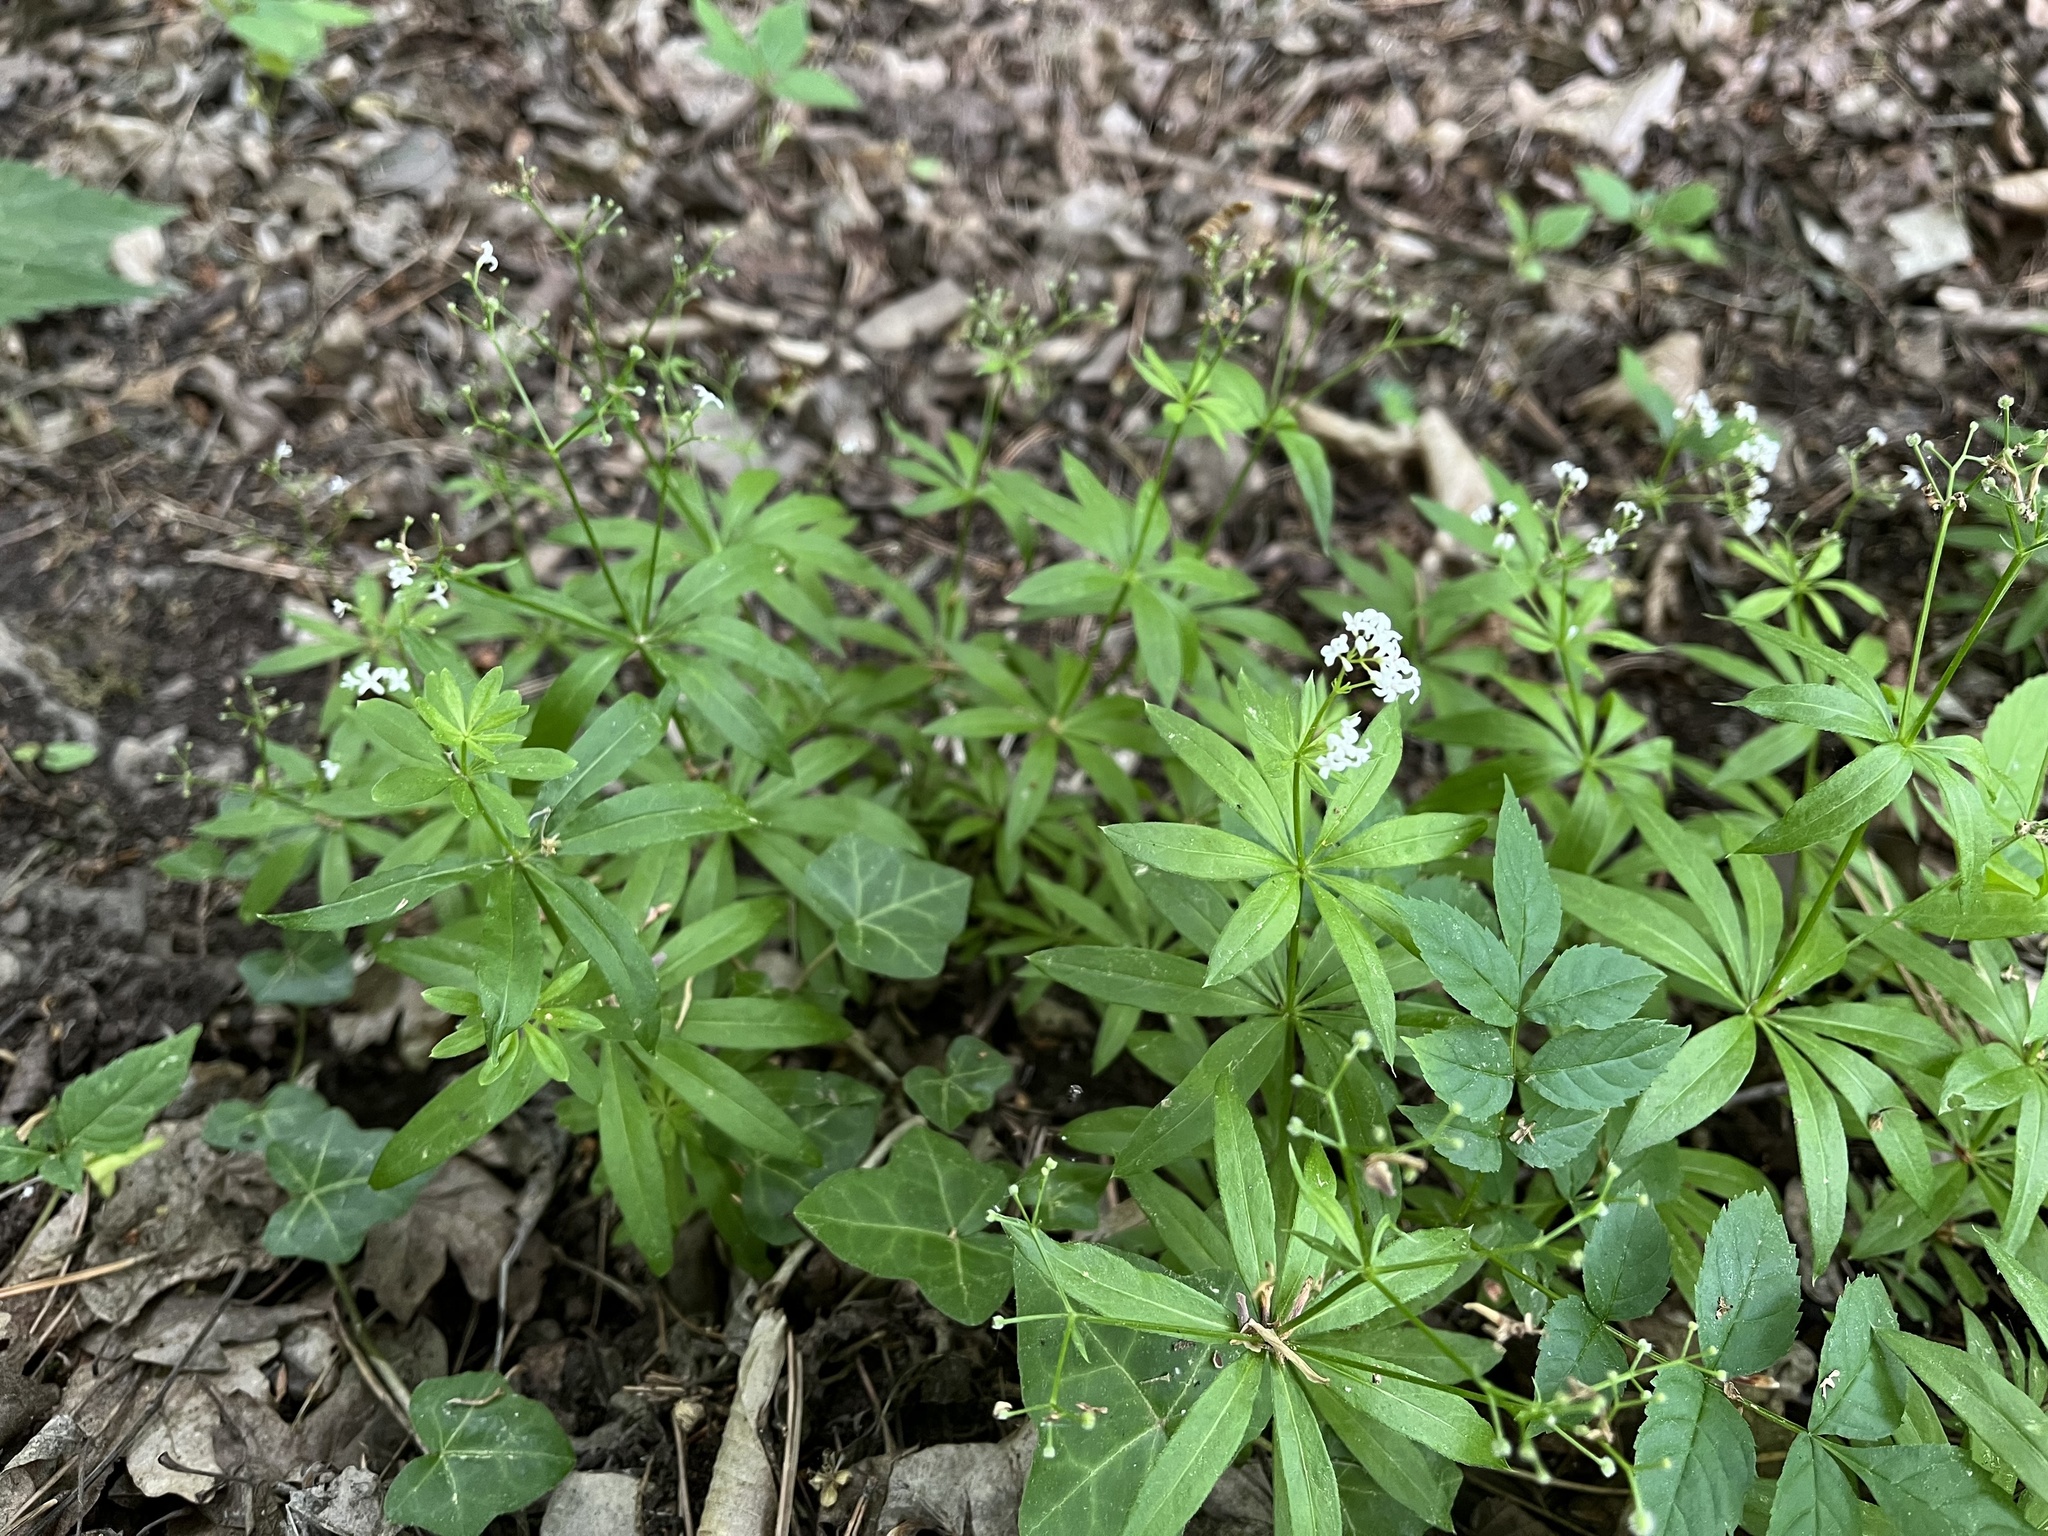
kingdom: Plantae
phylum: Tracheophyta
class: Magnoliopsida
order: Gentianales
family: Rubiaceae
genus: Galium
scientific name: Galium odoratum
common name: Sweet woodruff
